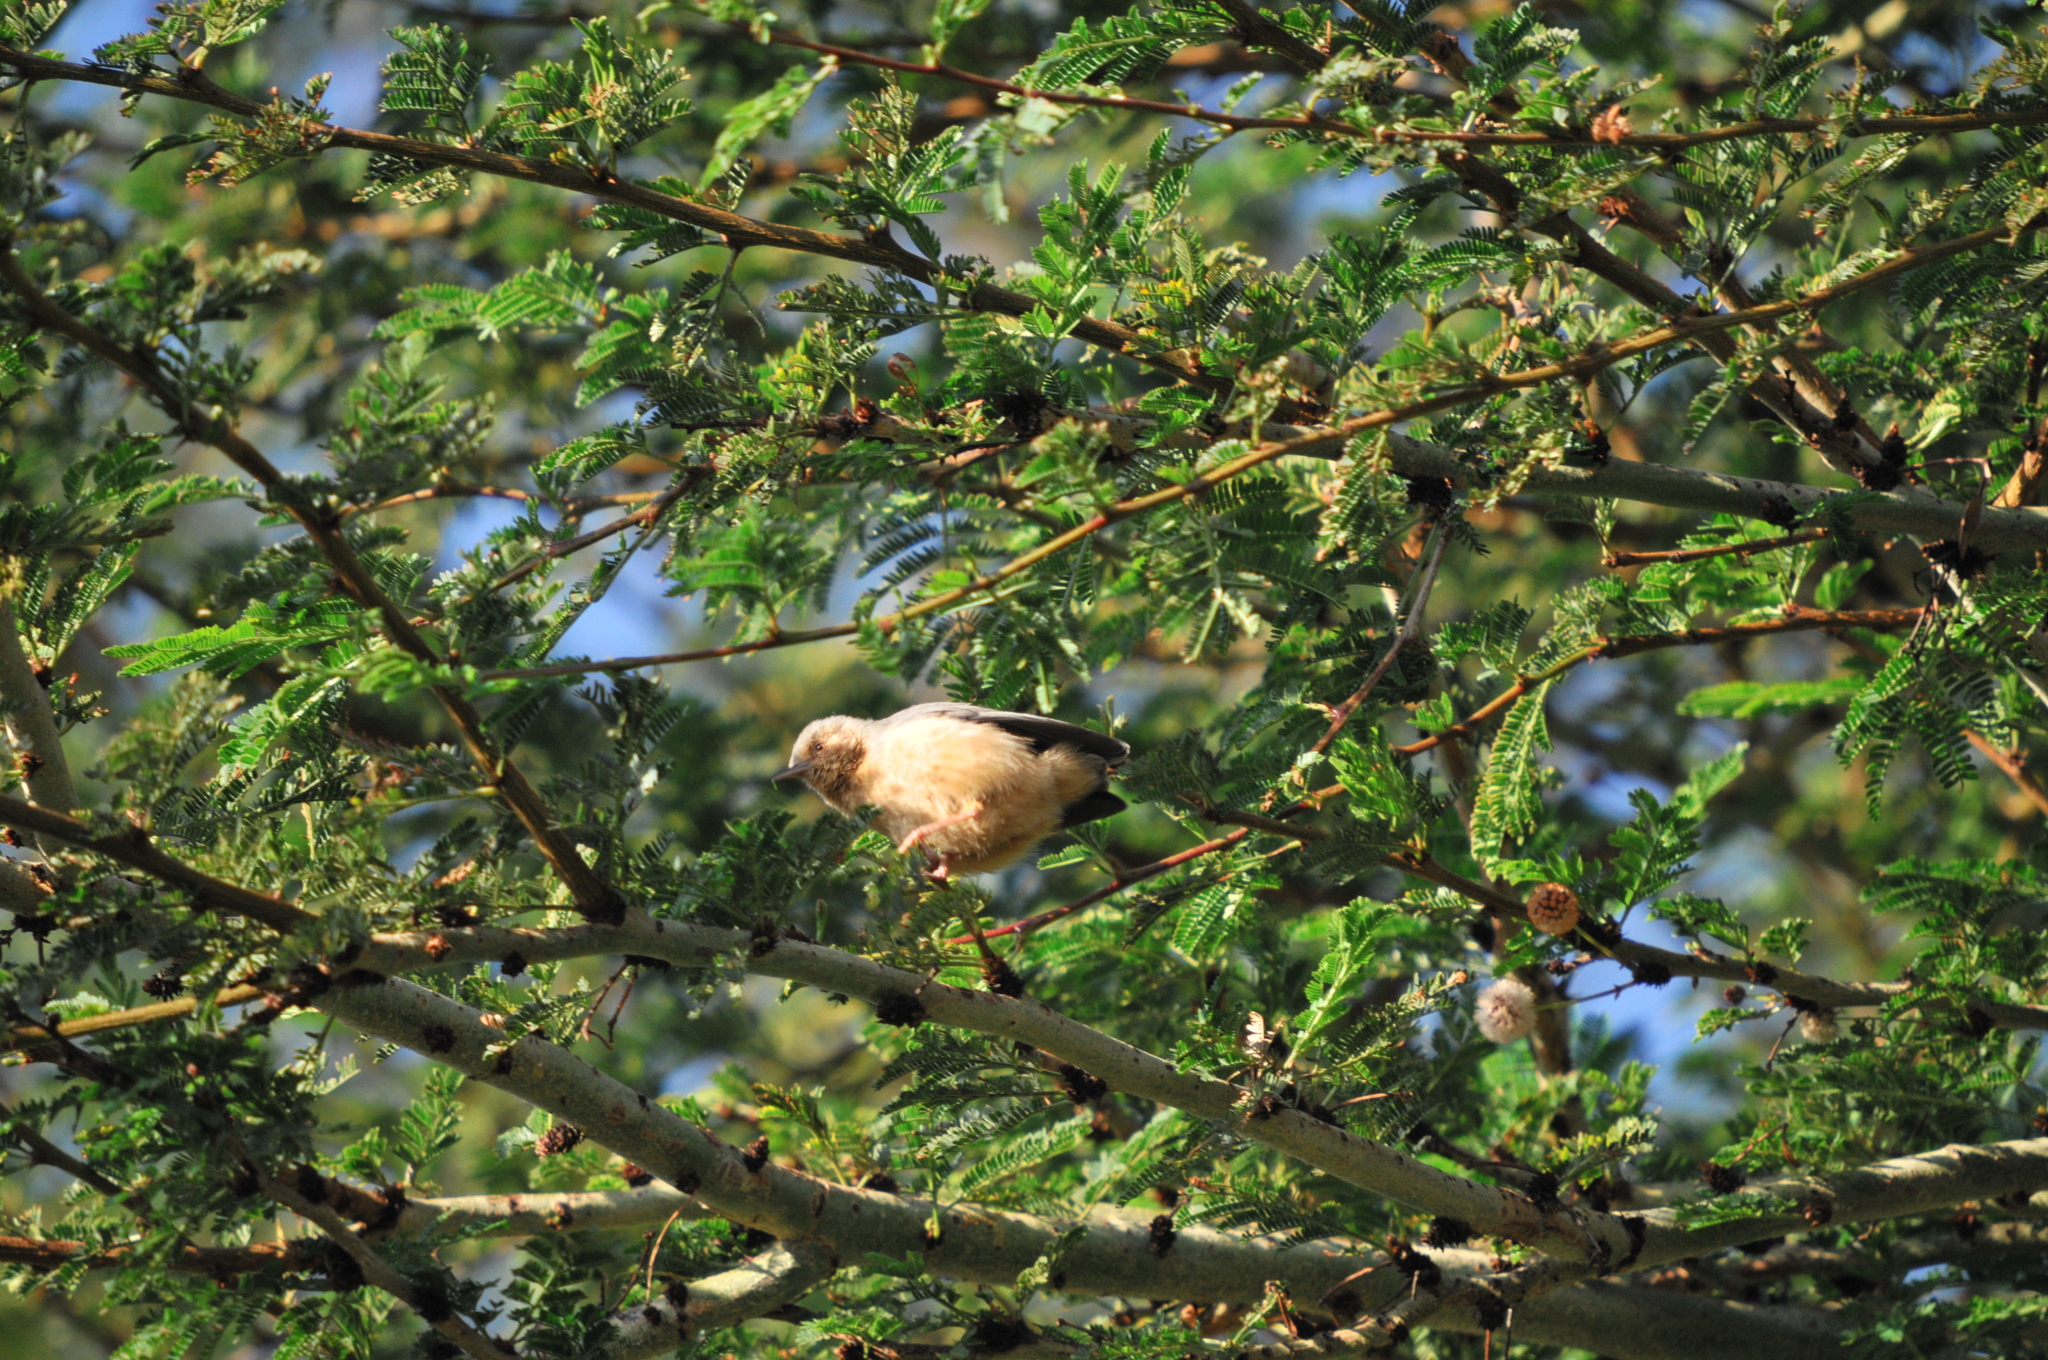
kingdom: Animalia
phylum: Chordata
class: Aves
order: Passeriformes
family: Macrosphenidae
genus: Sylvietta
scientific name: Sylvietta whytii
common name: Red-faced crombec
